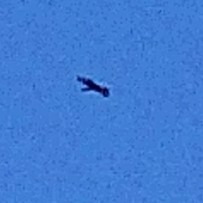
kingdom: Animalia
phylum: Chordata
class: Aves
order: Accipitriformes
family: Accipitridae
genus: Aquila
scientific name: Aquila verreauxii
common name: Verreaux's eagle
